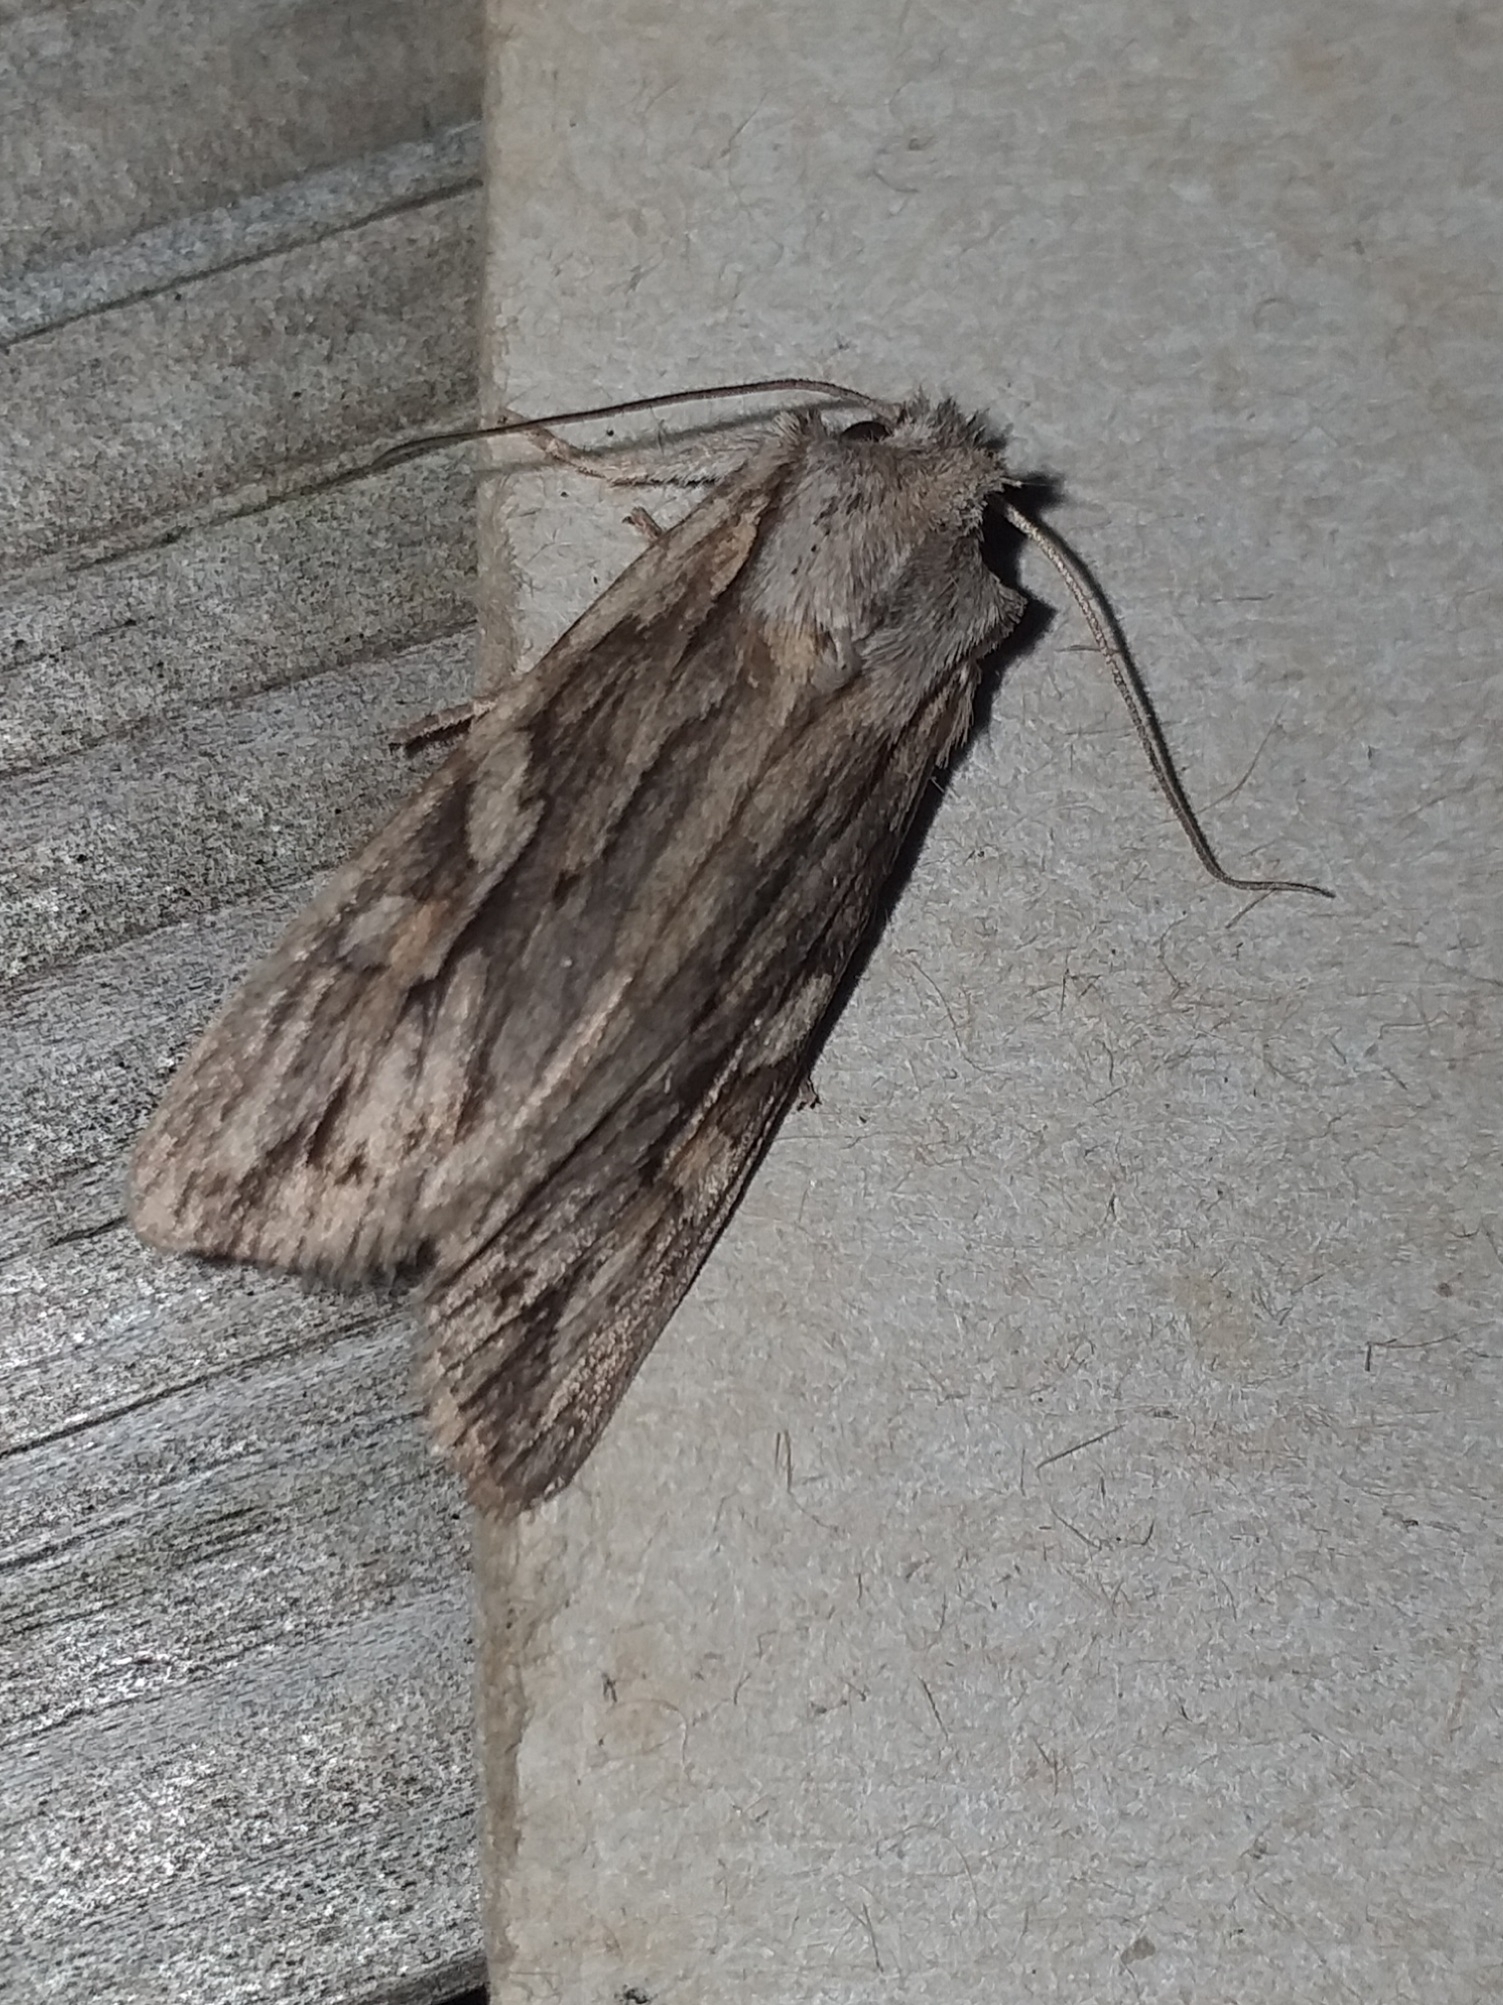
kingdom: Animalia
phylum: Arthropoda
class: Insecta
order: Lepidoptera
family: Noctuidae
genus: Lithophane
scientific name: Lithophane leautieri
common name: Blair's shoulder-knot
